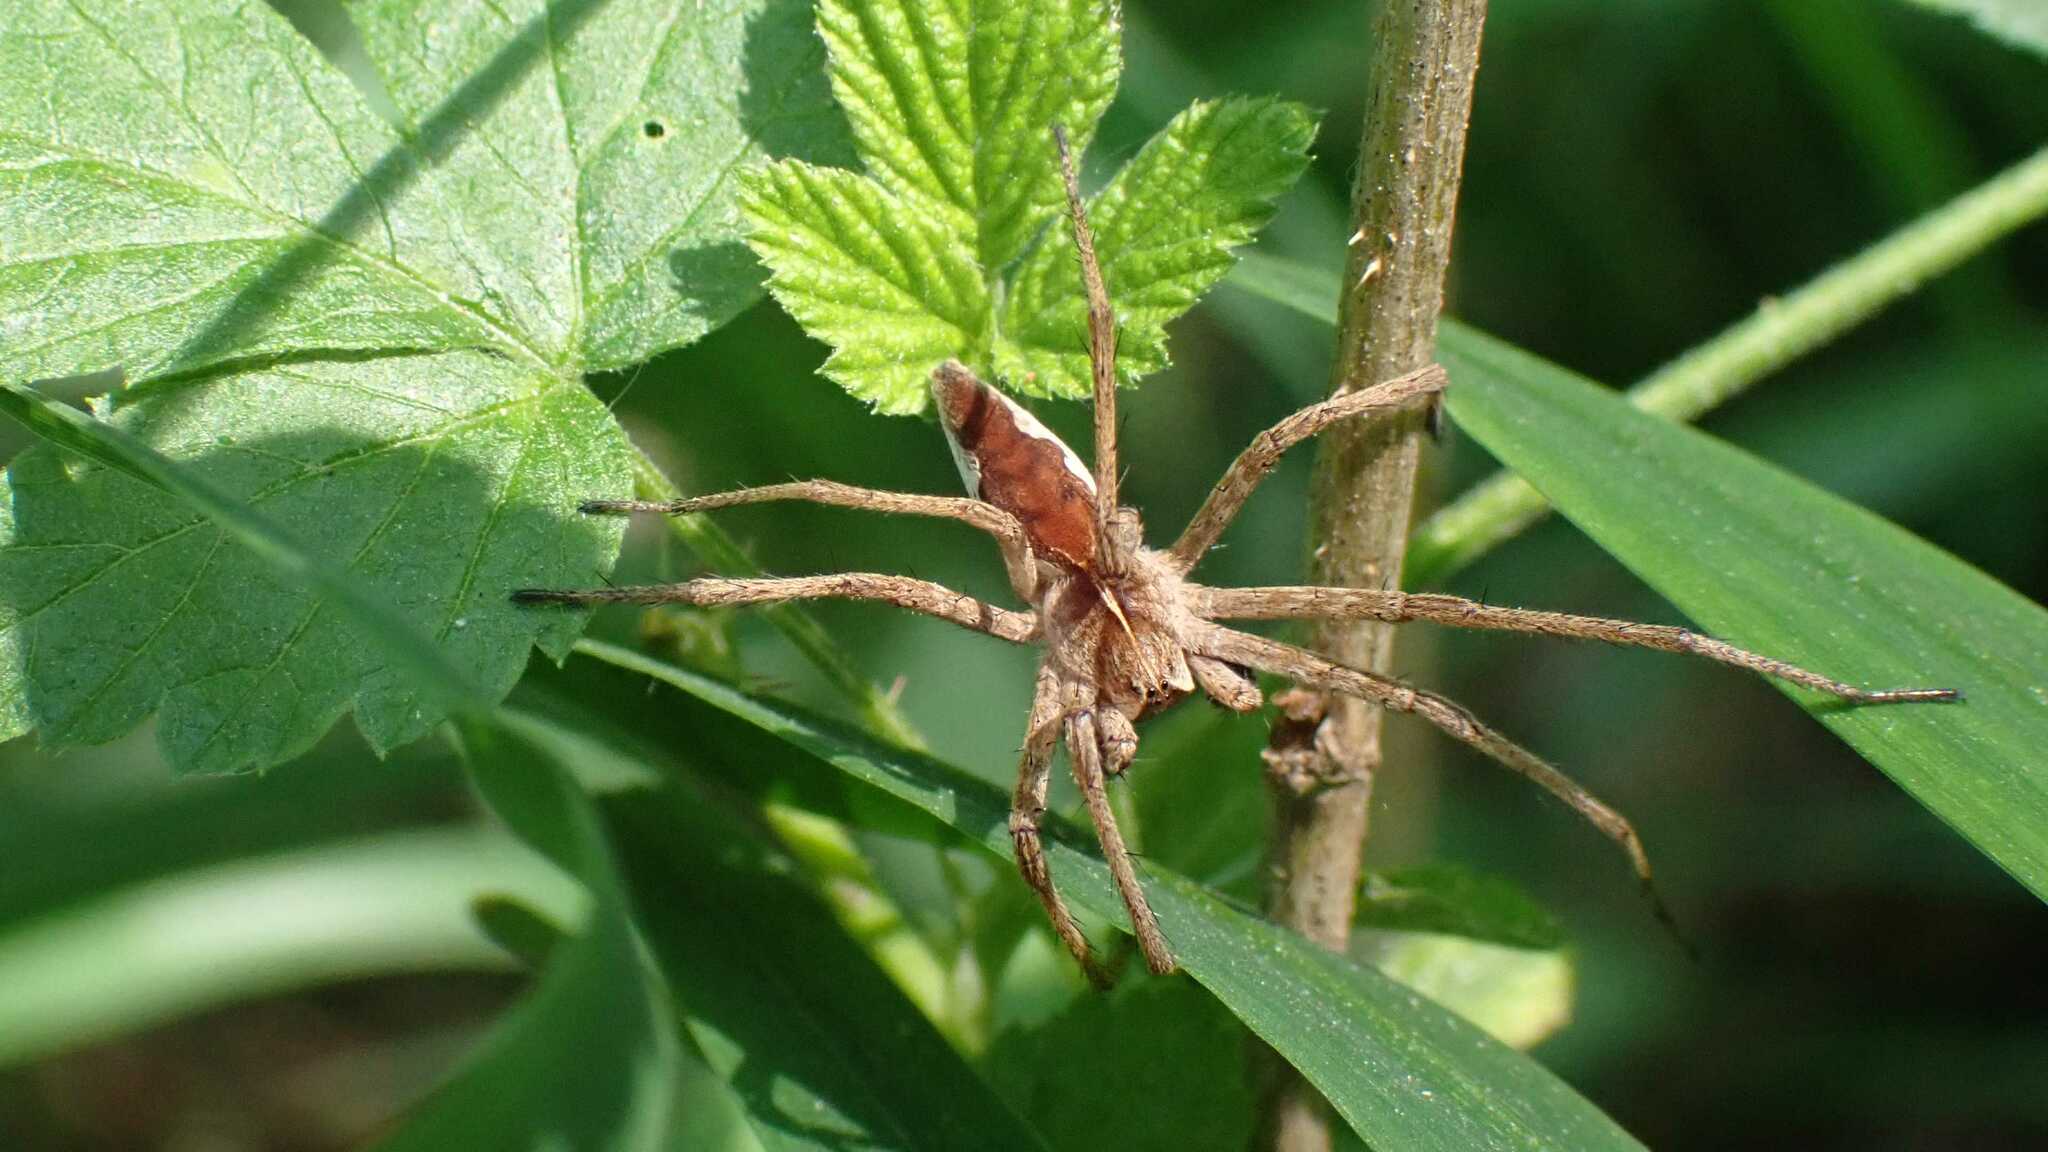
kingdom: Animalia
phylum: Arthropoda
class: Arachnida
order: Araneae
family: Pisauridae
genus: Pisaura
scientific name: Pisaura mirabilis
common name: Tent spider
